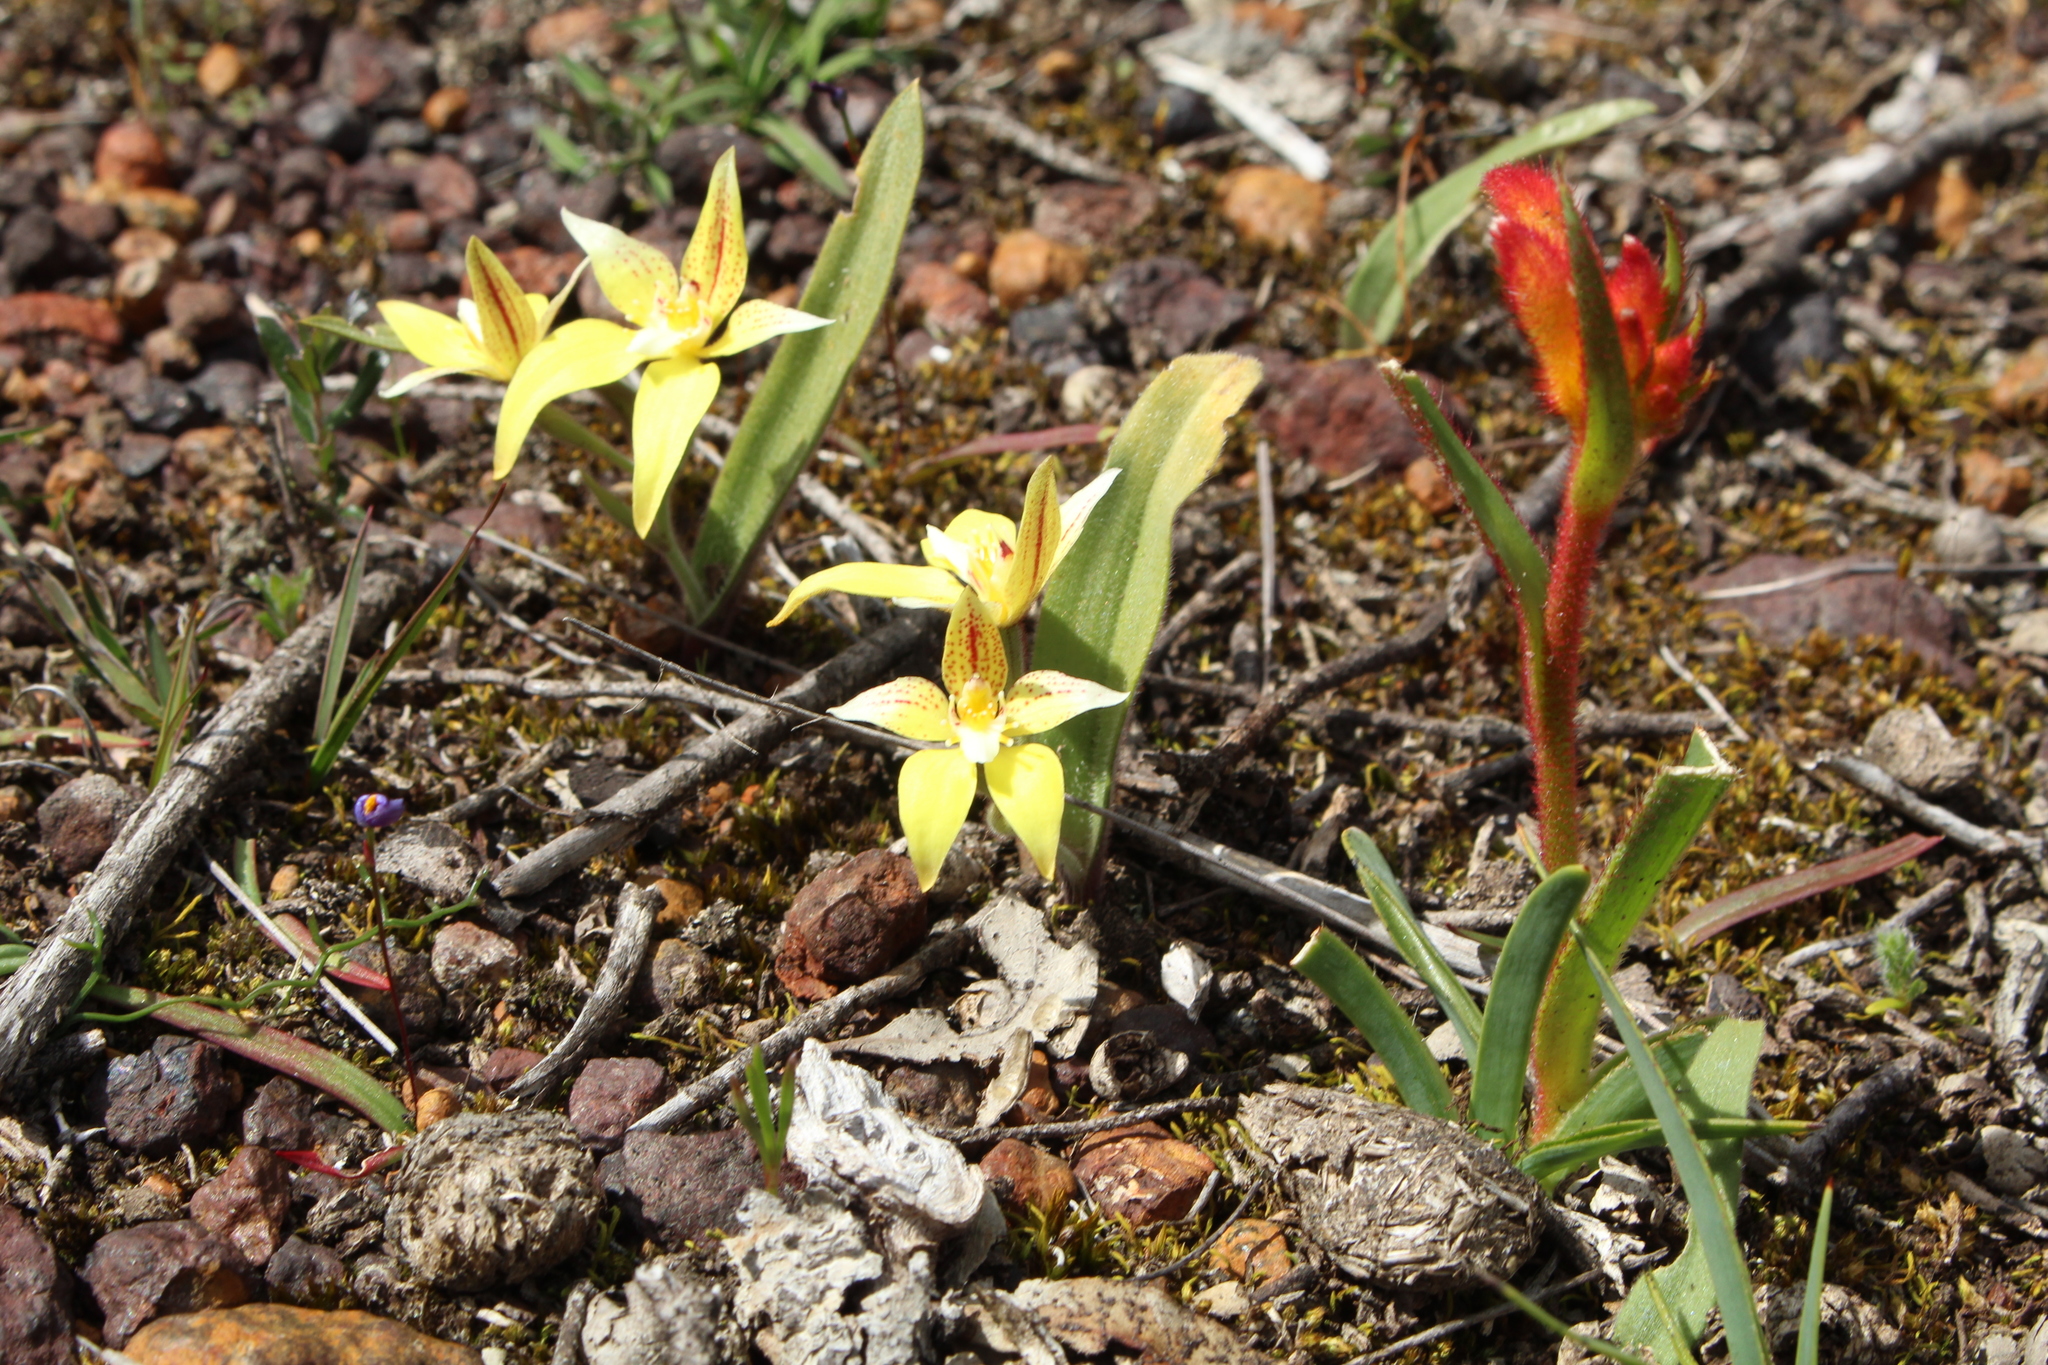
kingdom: Plantae
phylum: Tracheophyta
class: Liliopsida
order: Asparagales
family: Orchidaceae
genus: Caladenia
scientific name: Caladenia flava
